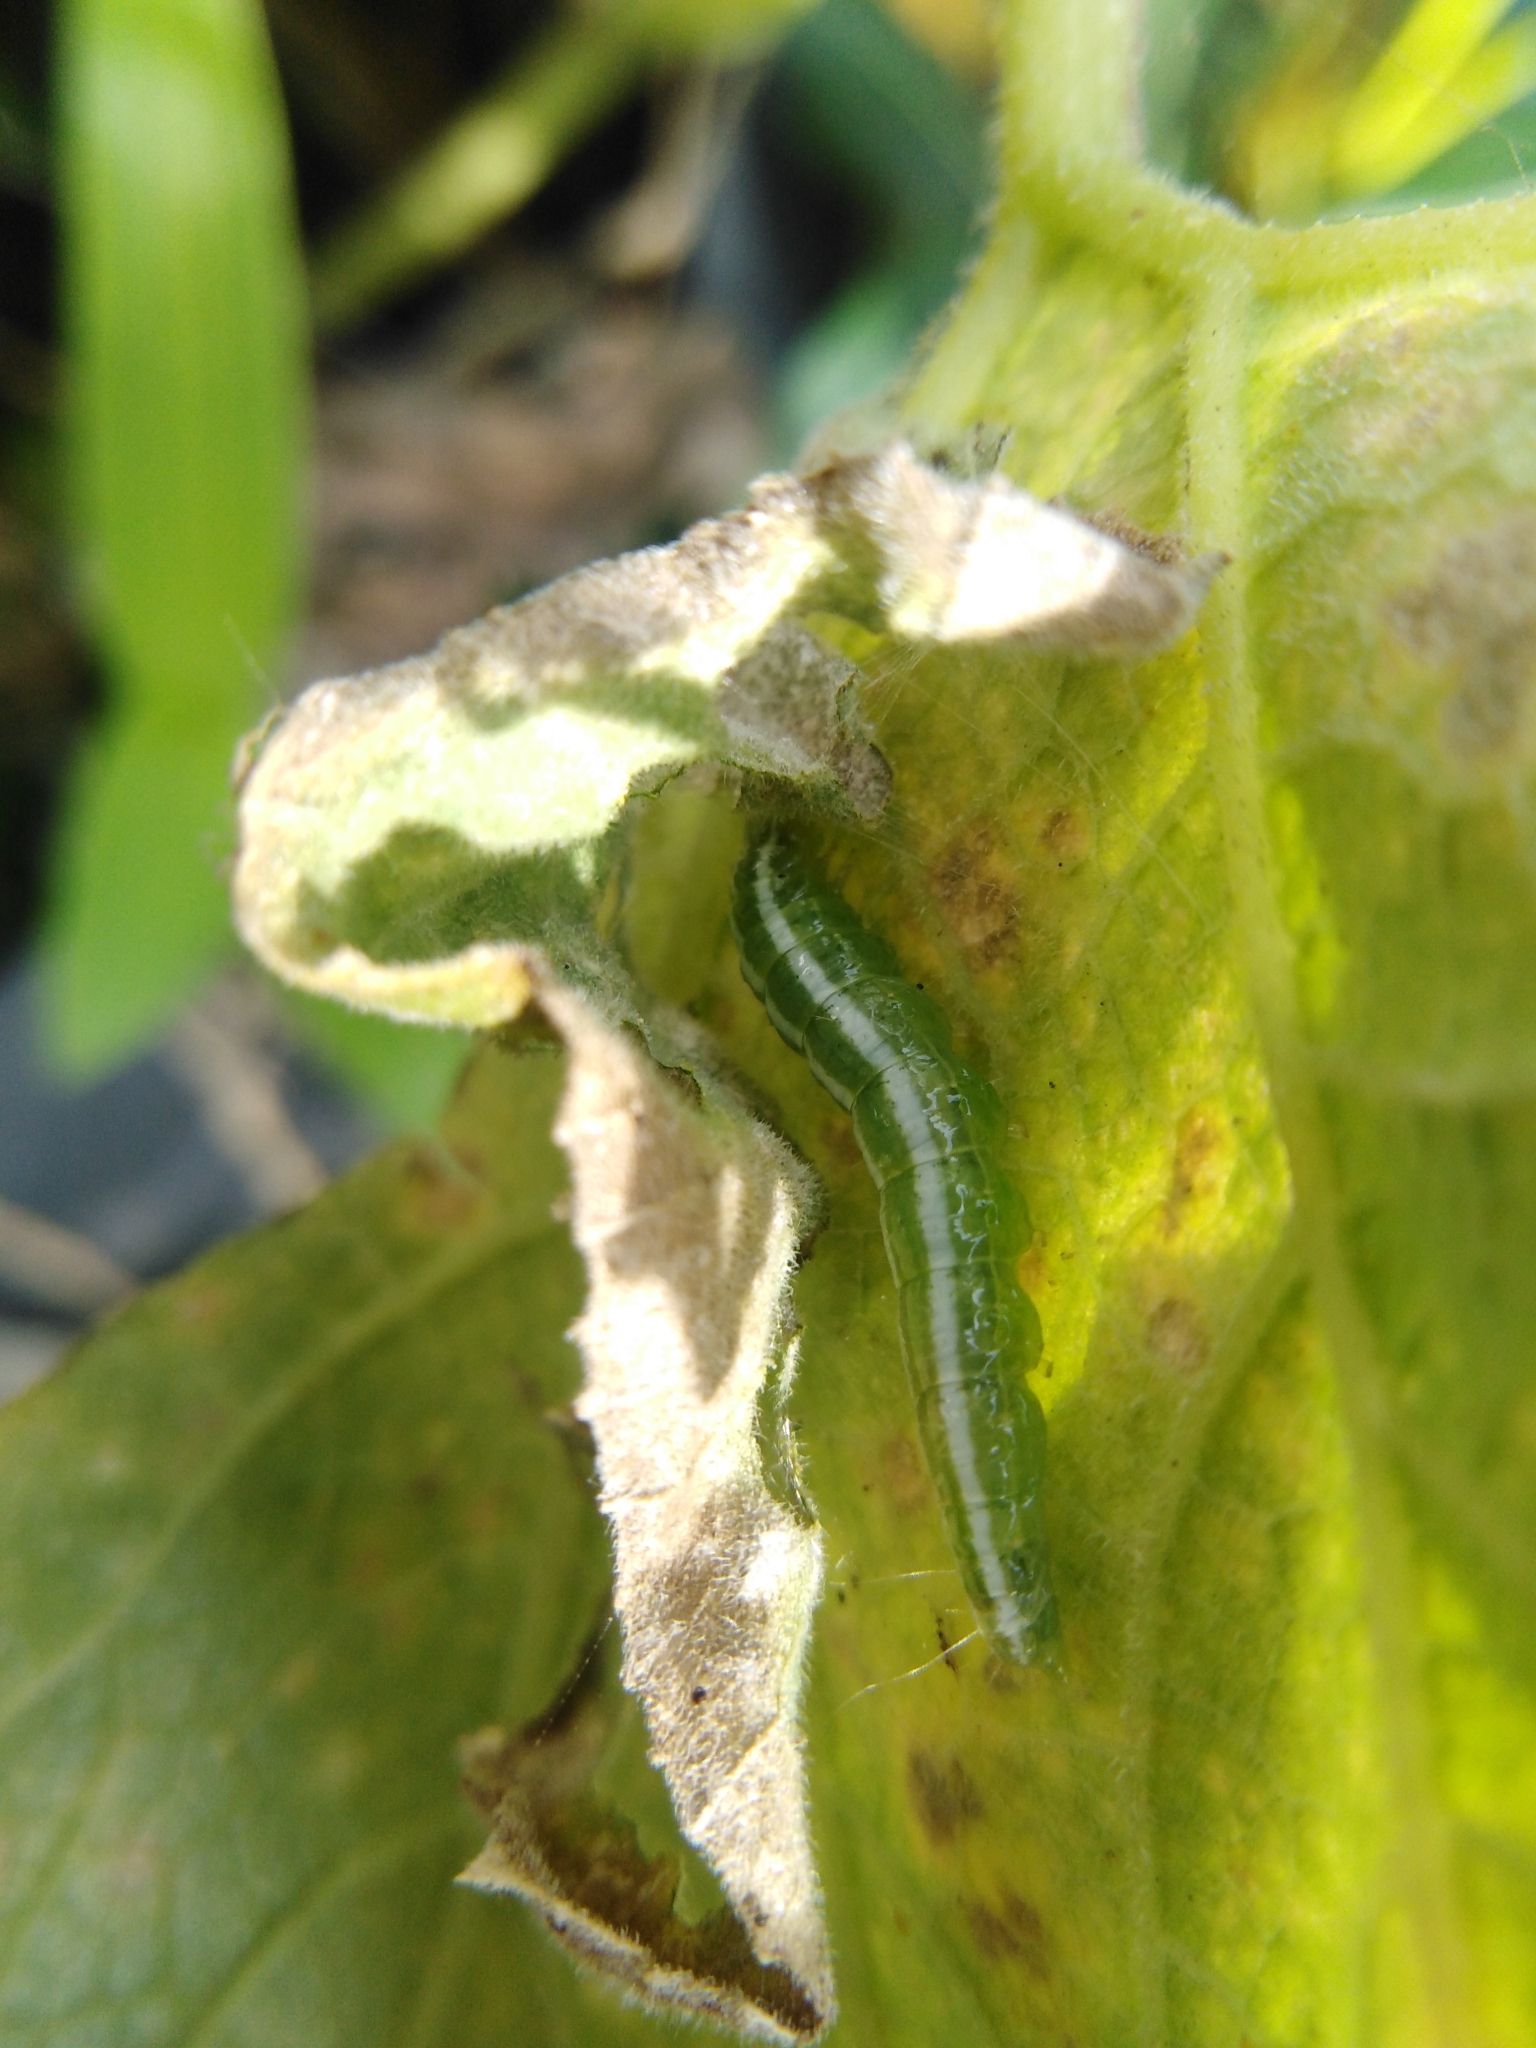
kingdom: Animalia
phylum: Arthropoda
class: Insecta
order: Lepidoptera
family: Crambidae
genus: Diaphania
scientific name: Diaphania indica
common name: Cucumber moth
